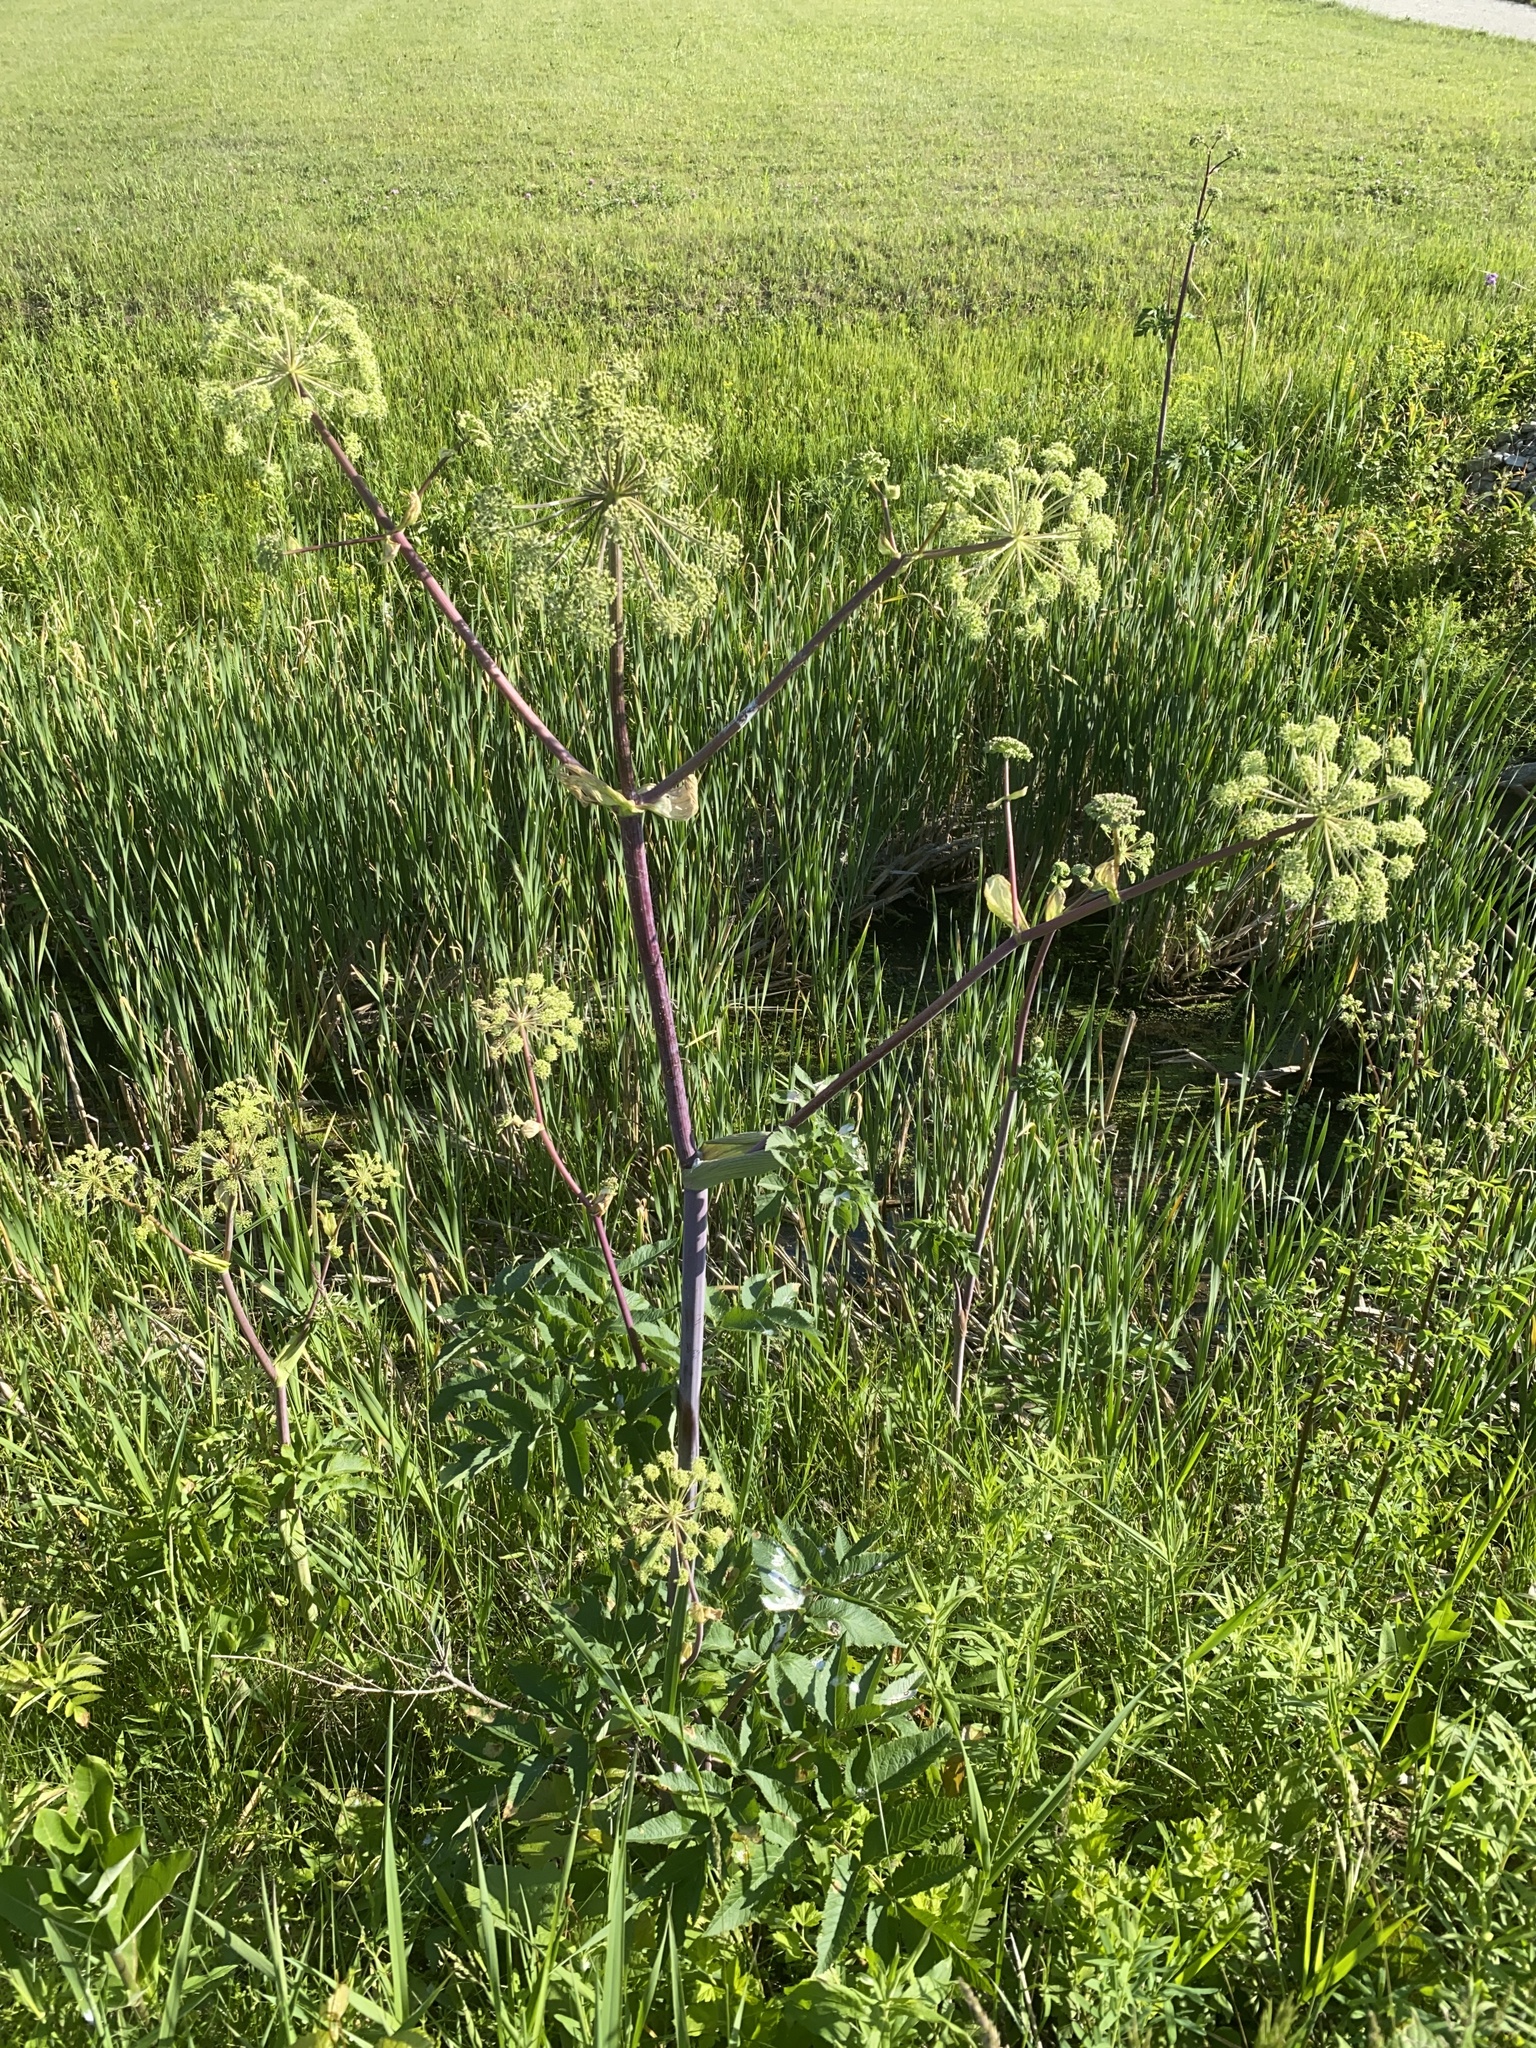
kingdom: Plantae
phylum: Tracheophyta
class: Magnoliopsida
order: Apiales
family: Apiaceae
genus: Angelica
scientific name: Angelica atropurpurea
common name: Great angelica
